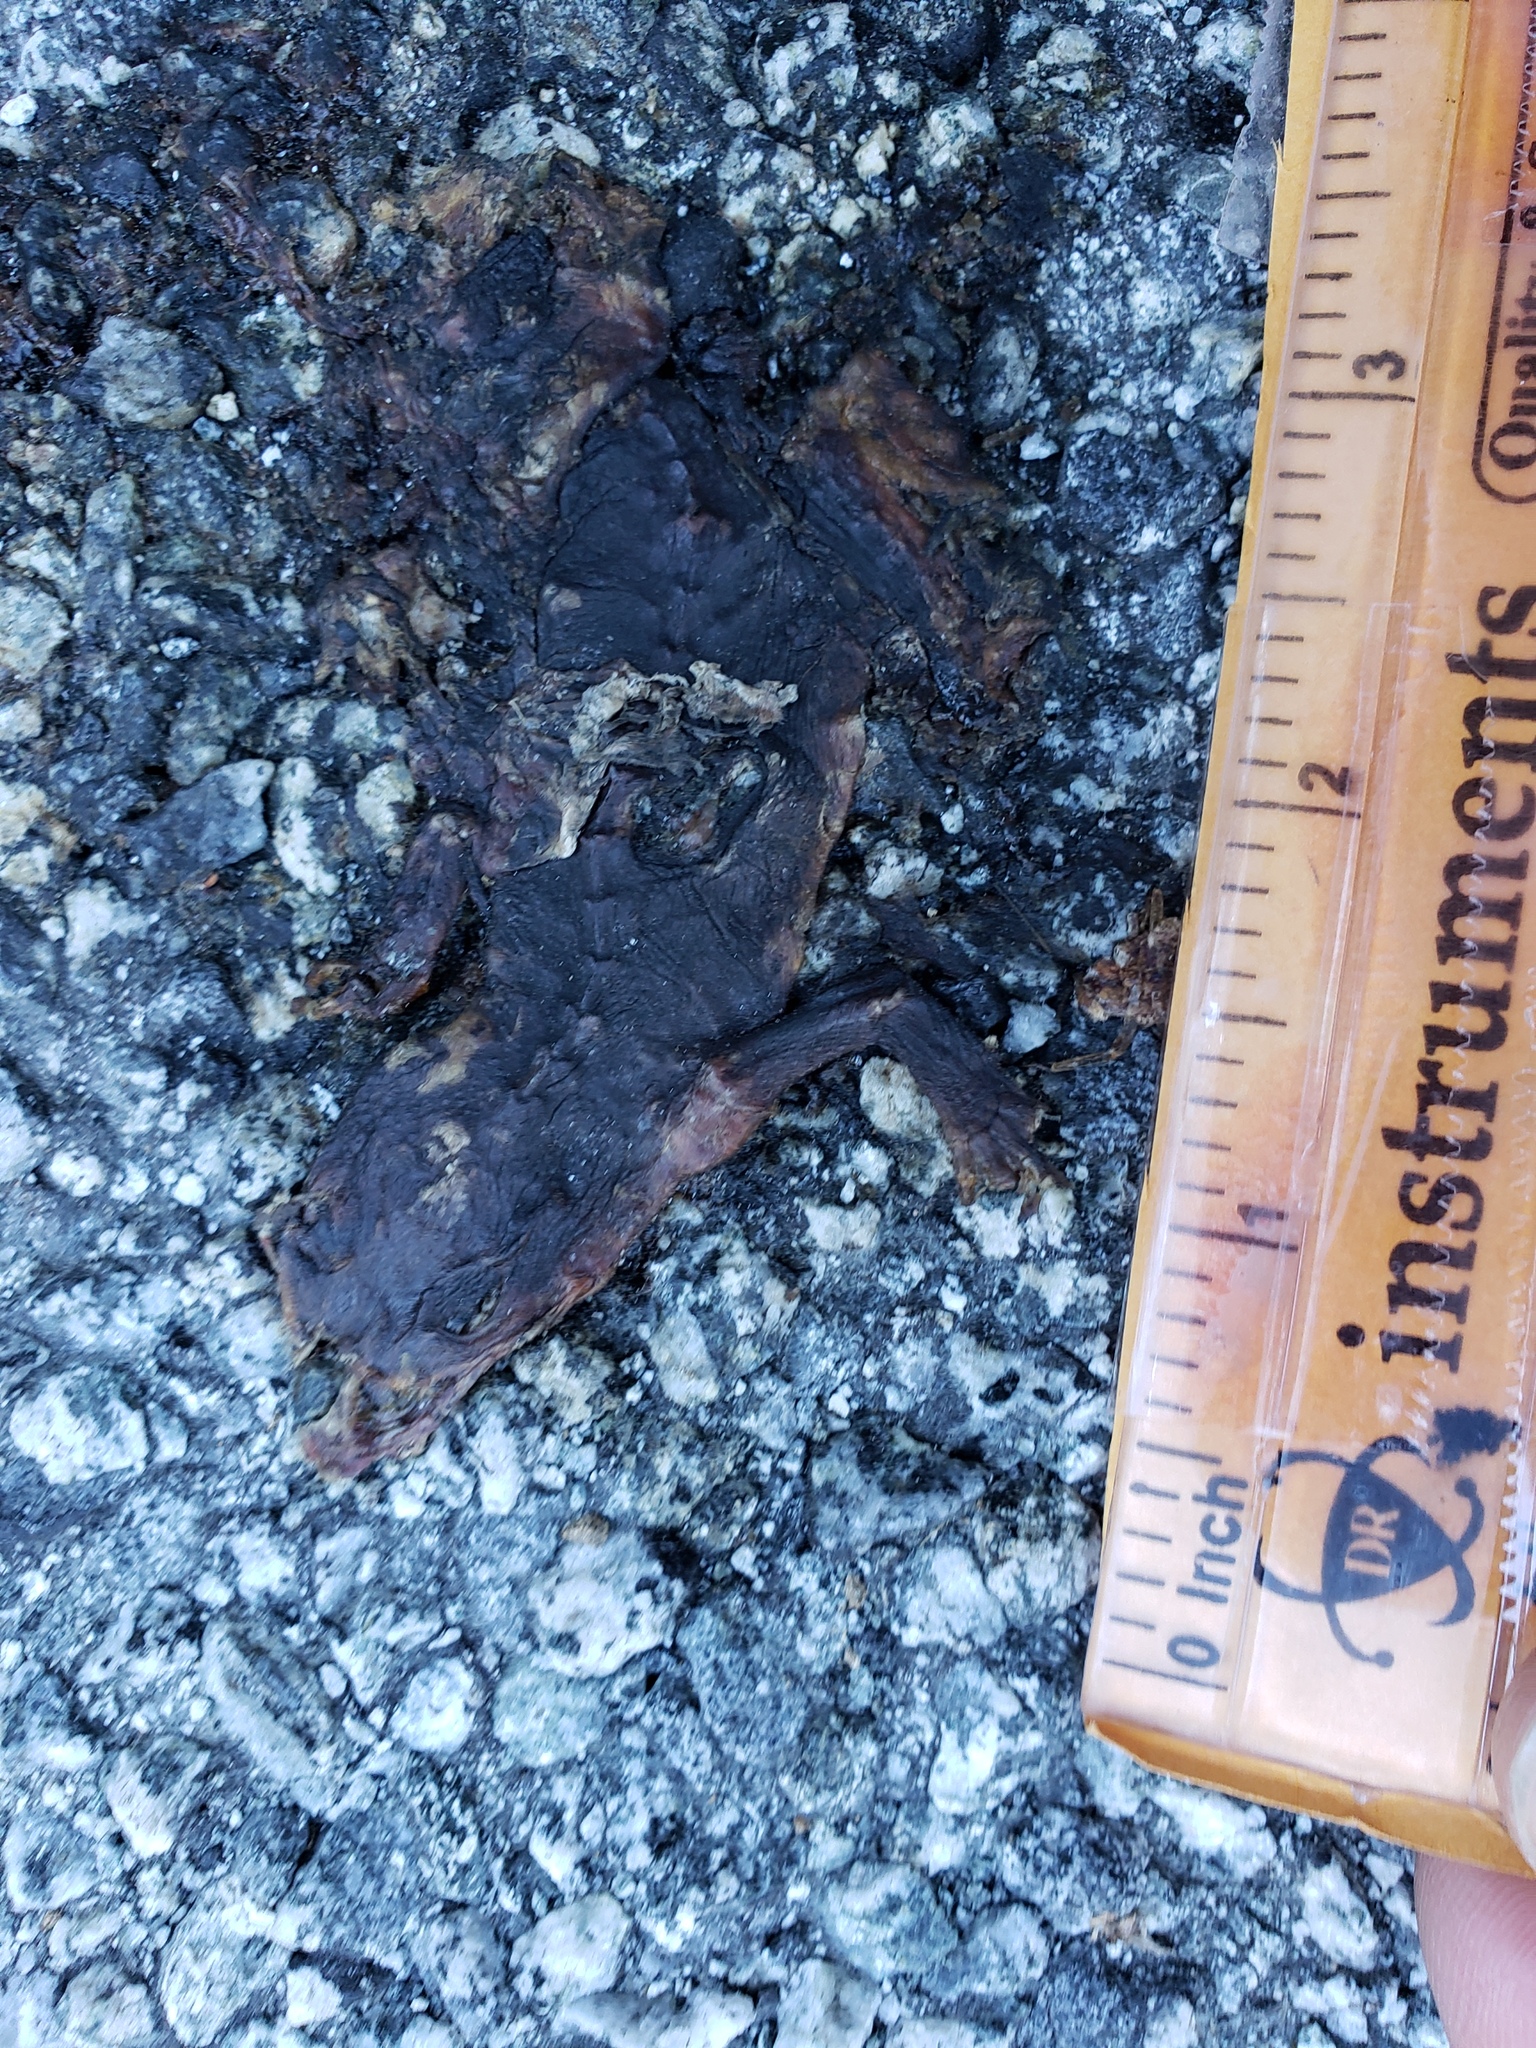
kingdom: Animalia
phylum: Chordata
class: Amphibia
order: Caudata
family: Salamandridae
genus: Taricha
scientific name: Taricha
